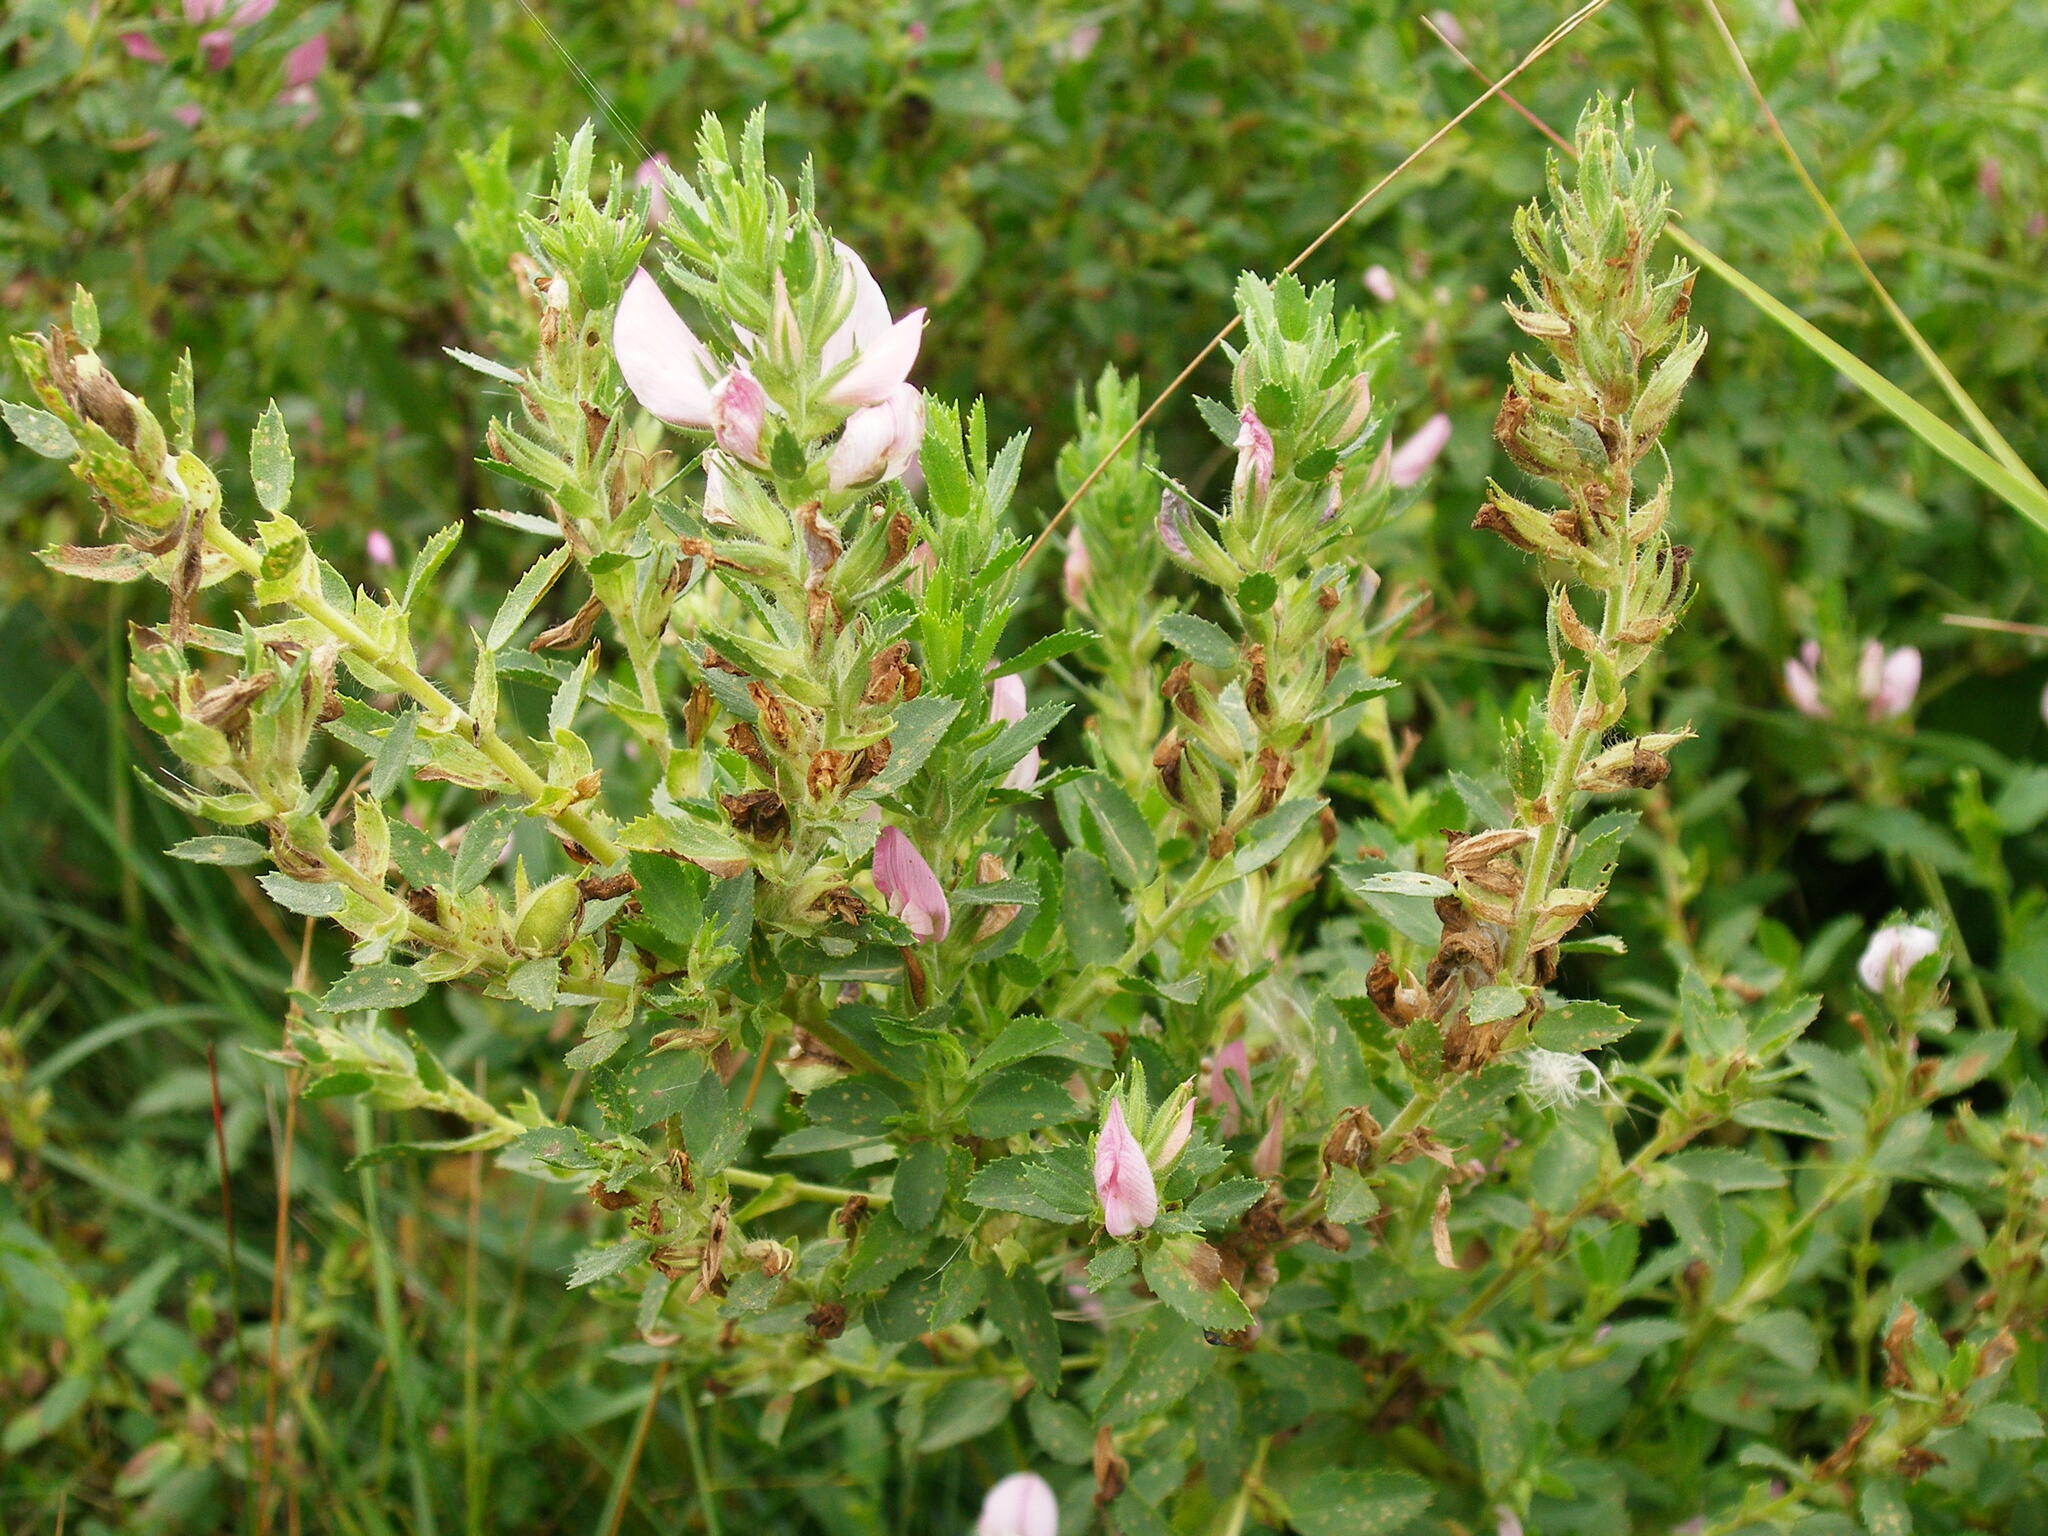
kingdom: Plantae
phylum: Tracheophyta
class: Magnoliopsida
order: Fabales
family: Fabaceae
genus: Ononis
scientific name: Ononis arvensis
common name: Field restharrow
